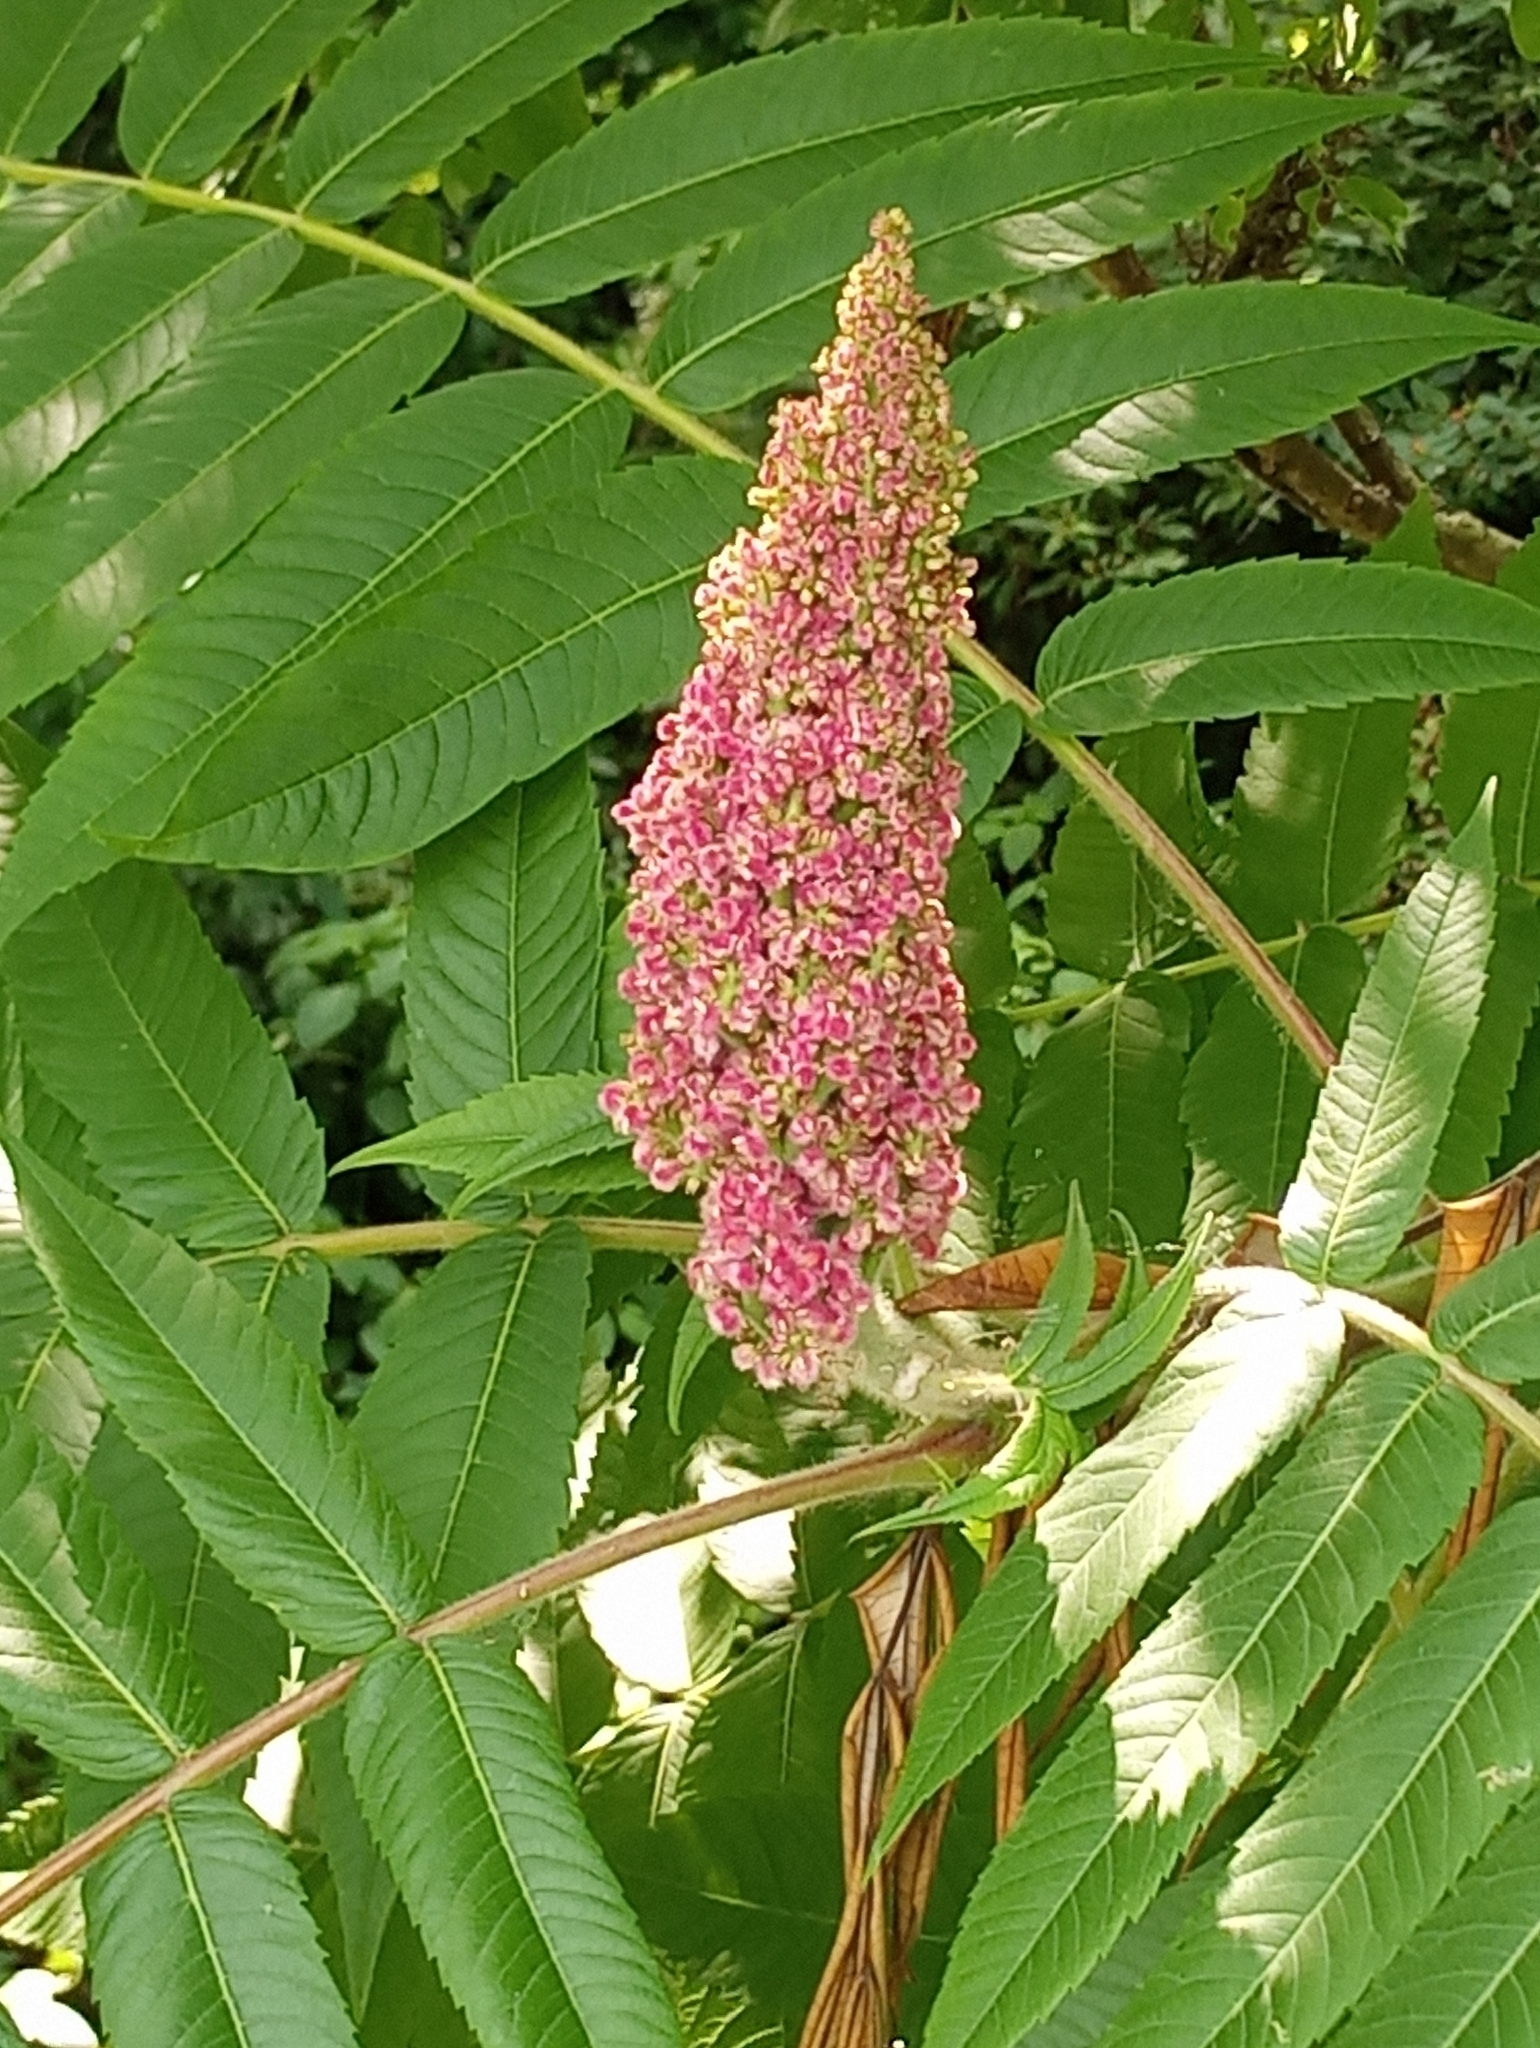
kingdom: Plantae
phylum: Tracheophyta
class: Magnoliopsida
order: Sapindales
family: Anacardiaceae
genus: Rhus
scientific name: Rhus typhina
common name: Staghorn sumac
